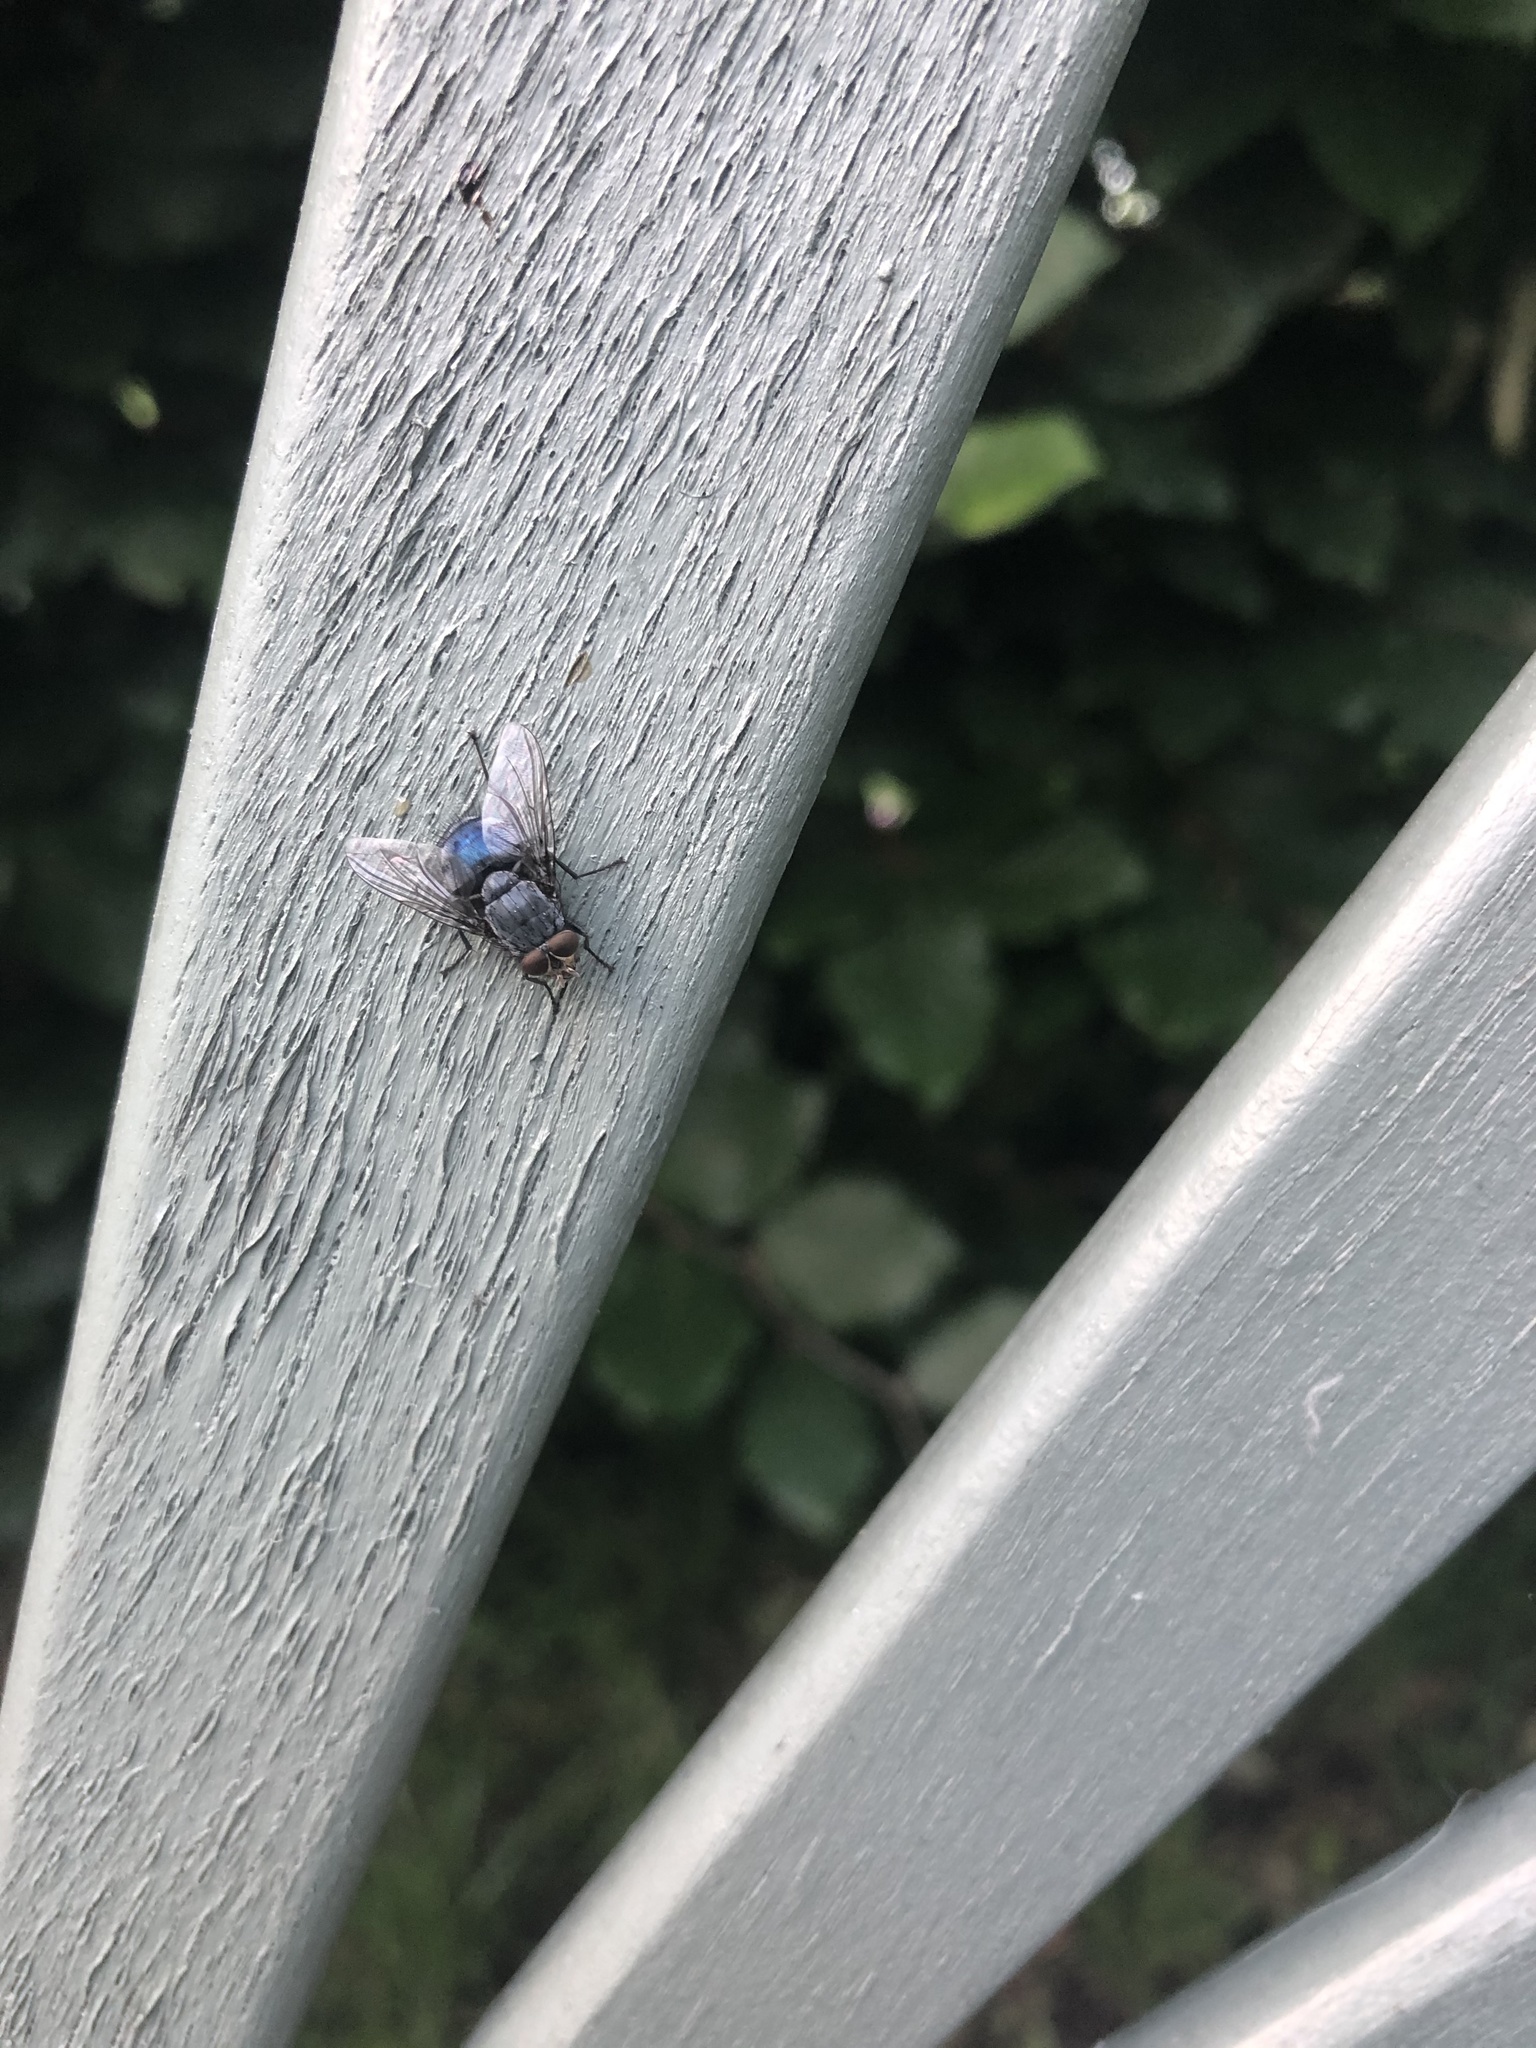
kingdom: Animalia
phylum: Arthropoda
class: Insecta
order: Diptera
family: Calliphoridae
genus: Calliphora
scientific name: Calliphora vicina
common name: Common blow flie
